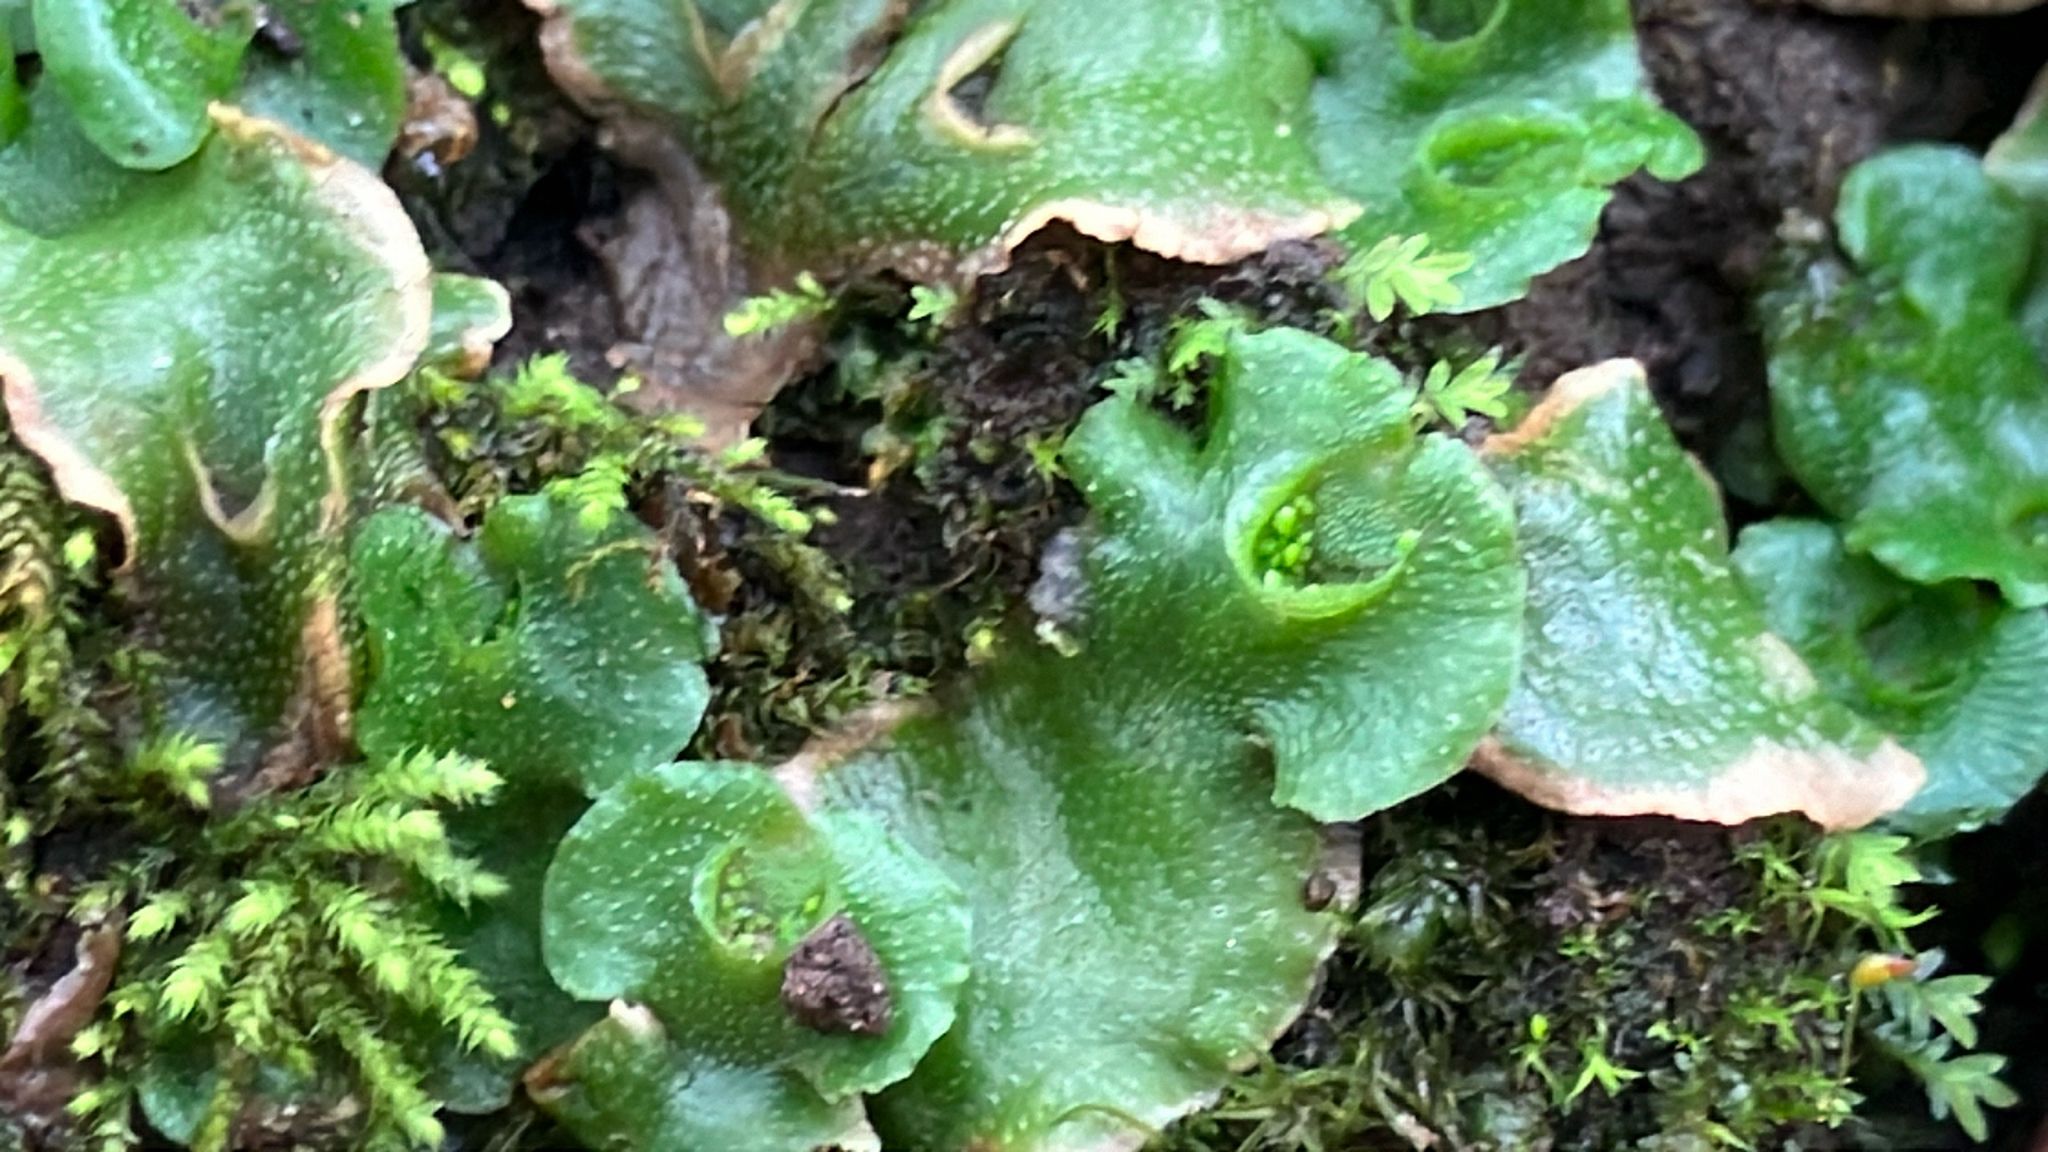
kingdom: Plantae
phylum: Marchantiophyta
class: Marchantiopsida
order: Lunulariales
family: Lunulariaceae
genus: Lunularia
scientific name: Lunularia cruciata
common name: Crescent-cup liverwort
